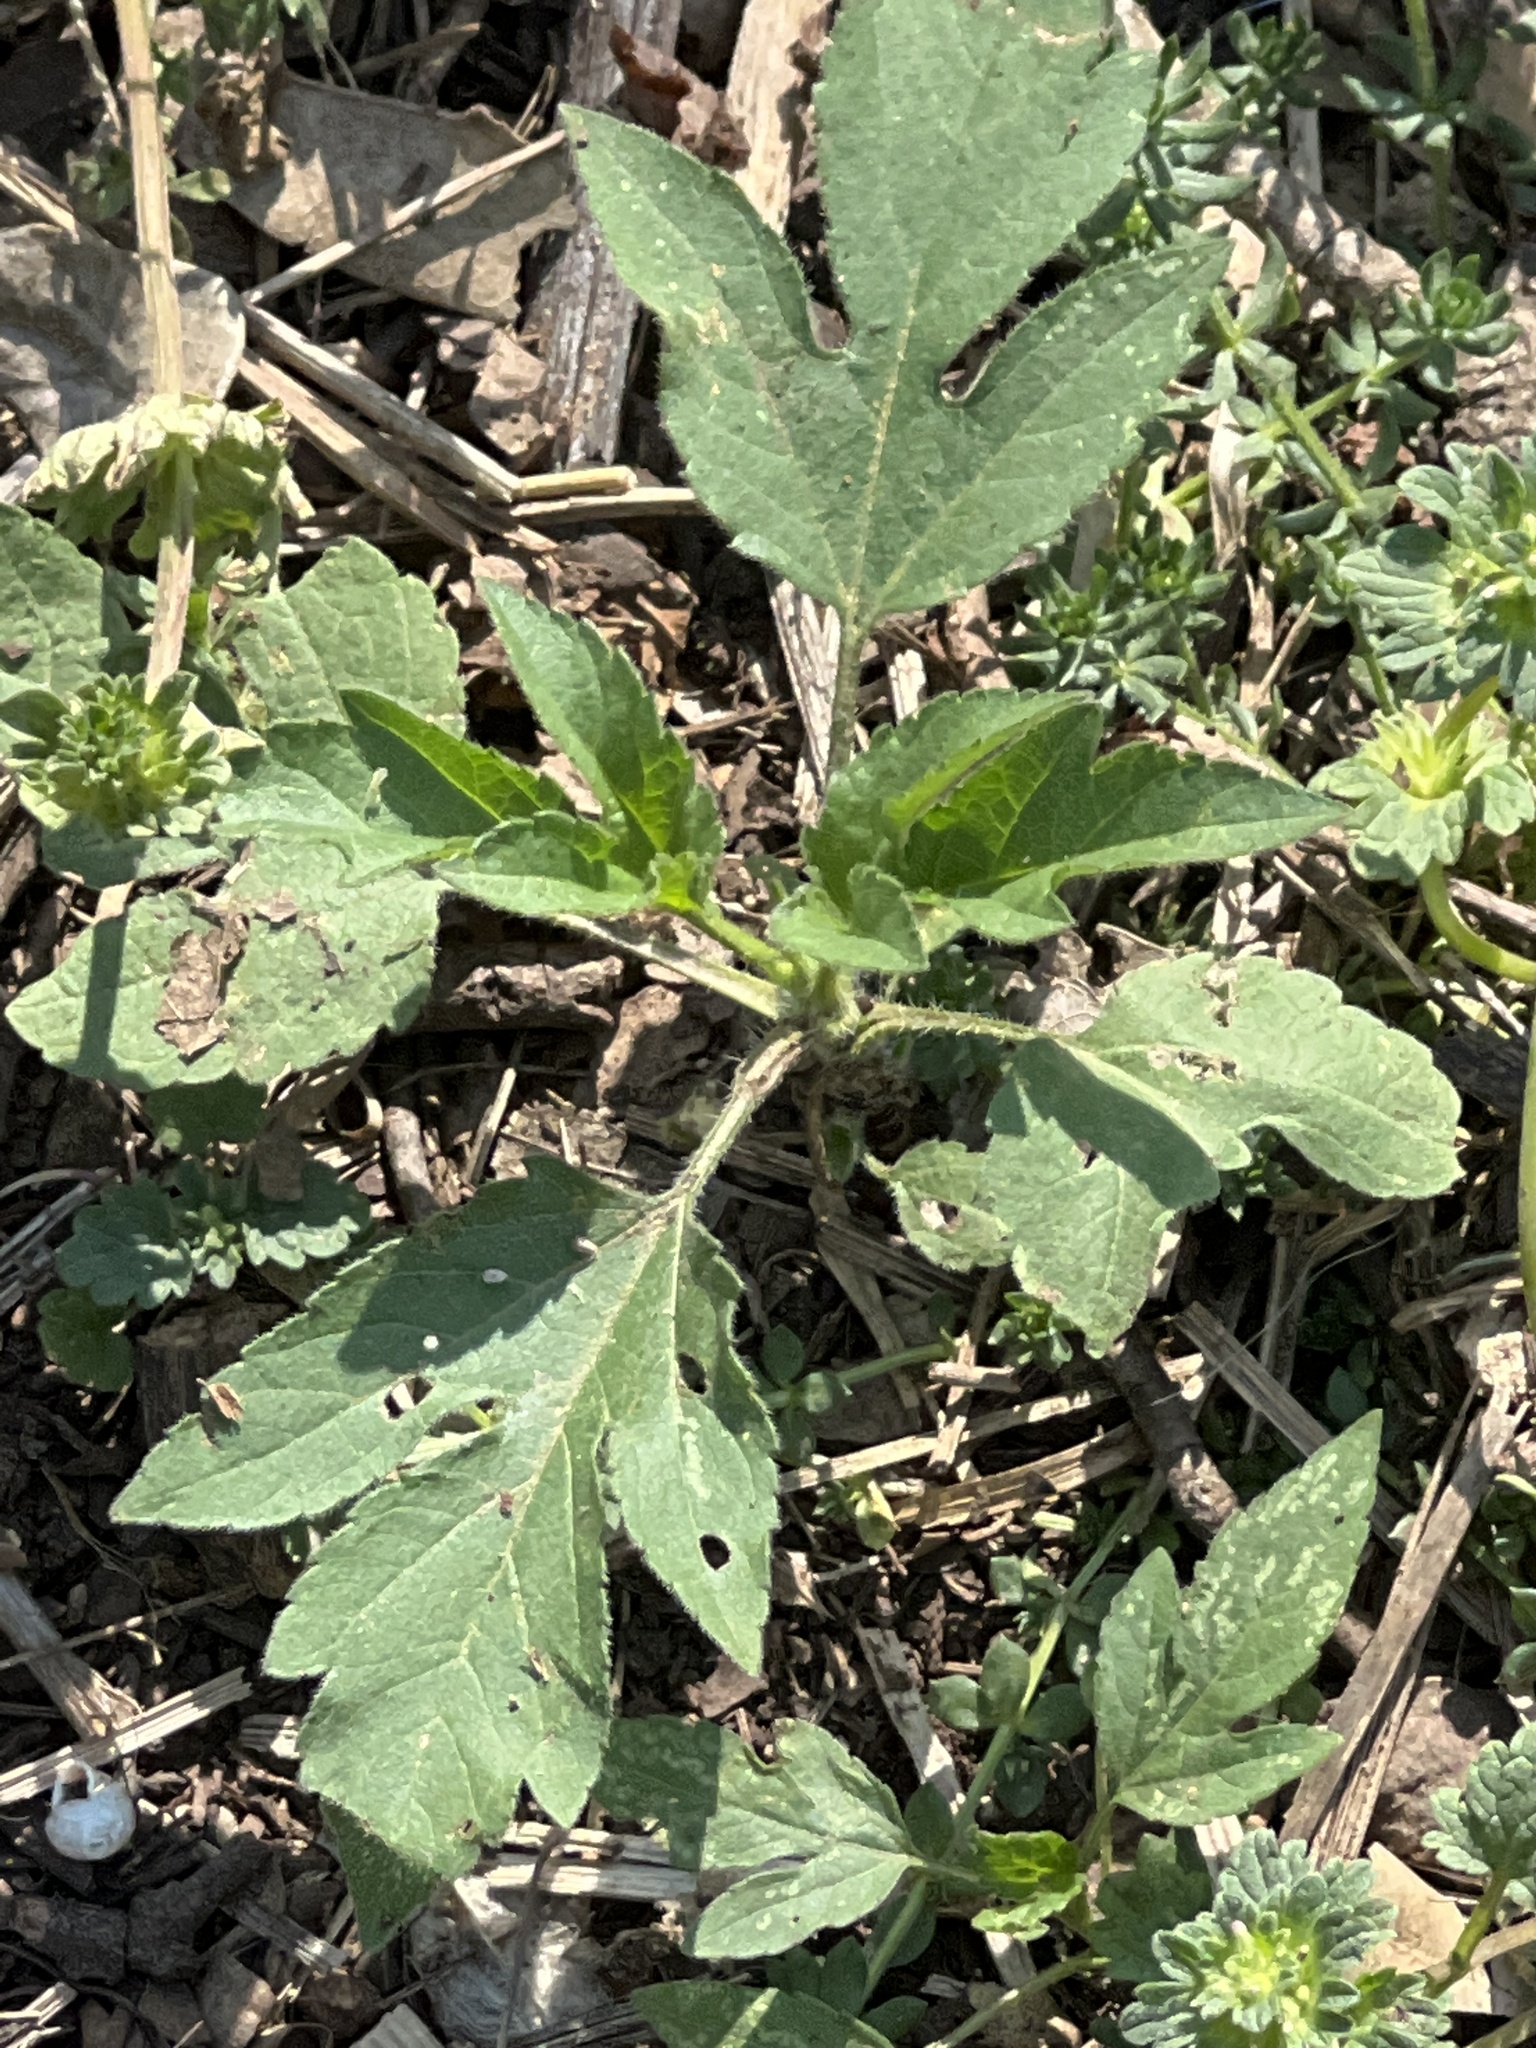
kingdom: Plantae
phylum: Tracheophyta
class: Magnoliopsida
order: Asterales
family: Asteraceae
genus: Ambrosia
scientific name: Ambrosia trifida
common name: Giant ragweed
